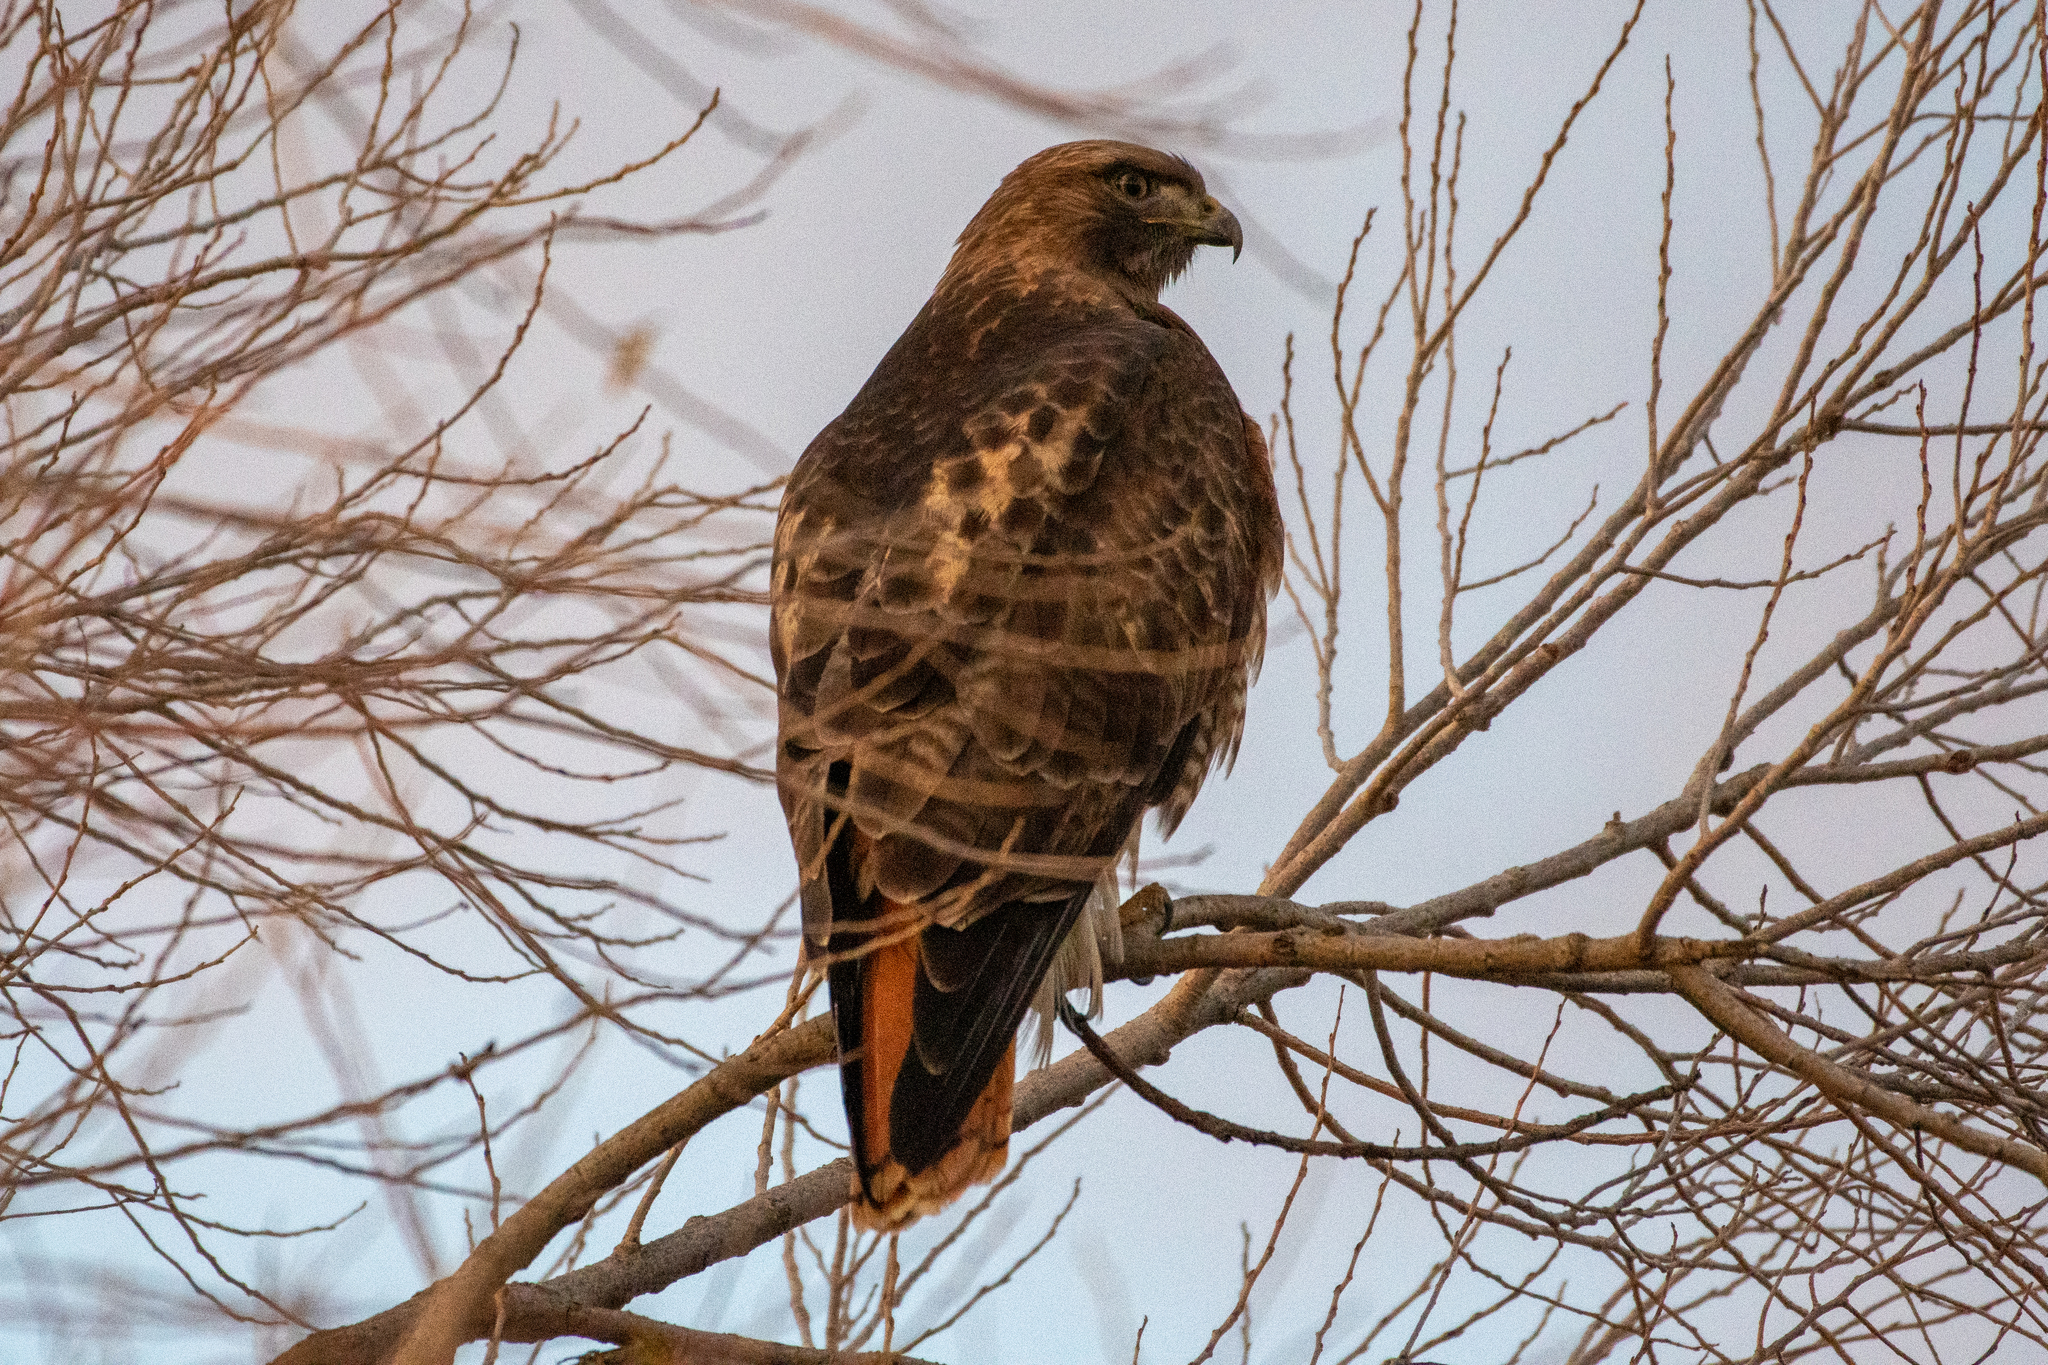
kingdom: Animalia
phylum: Chordata
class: Aves
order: Accipitriformes
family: Accipitridae
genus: Buteo
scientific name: Buteo jamaicensis
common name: Red-tailed hawk
